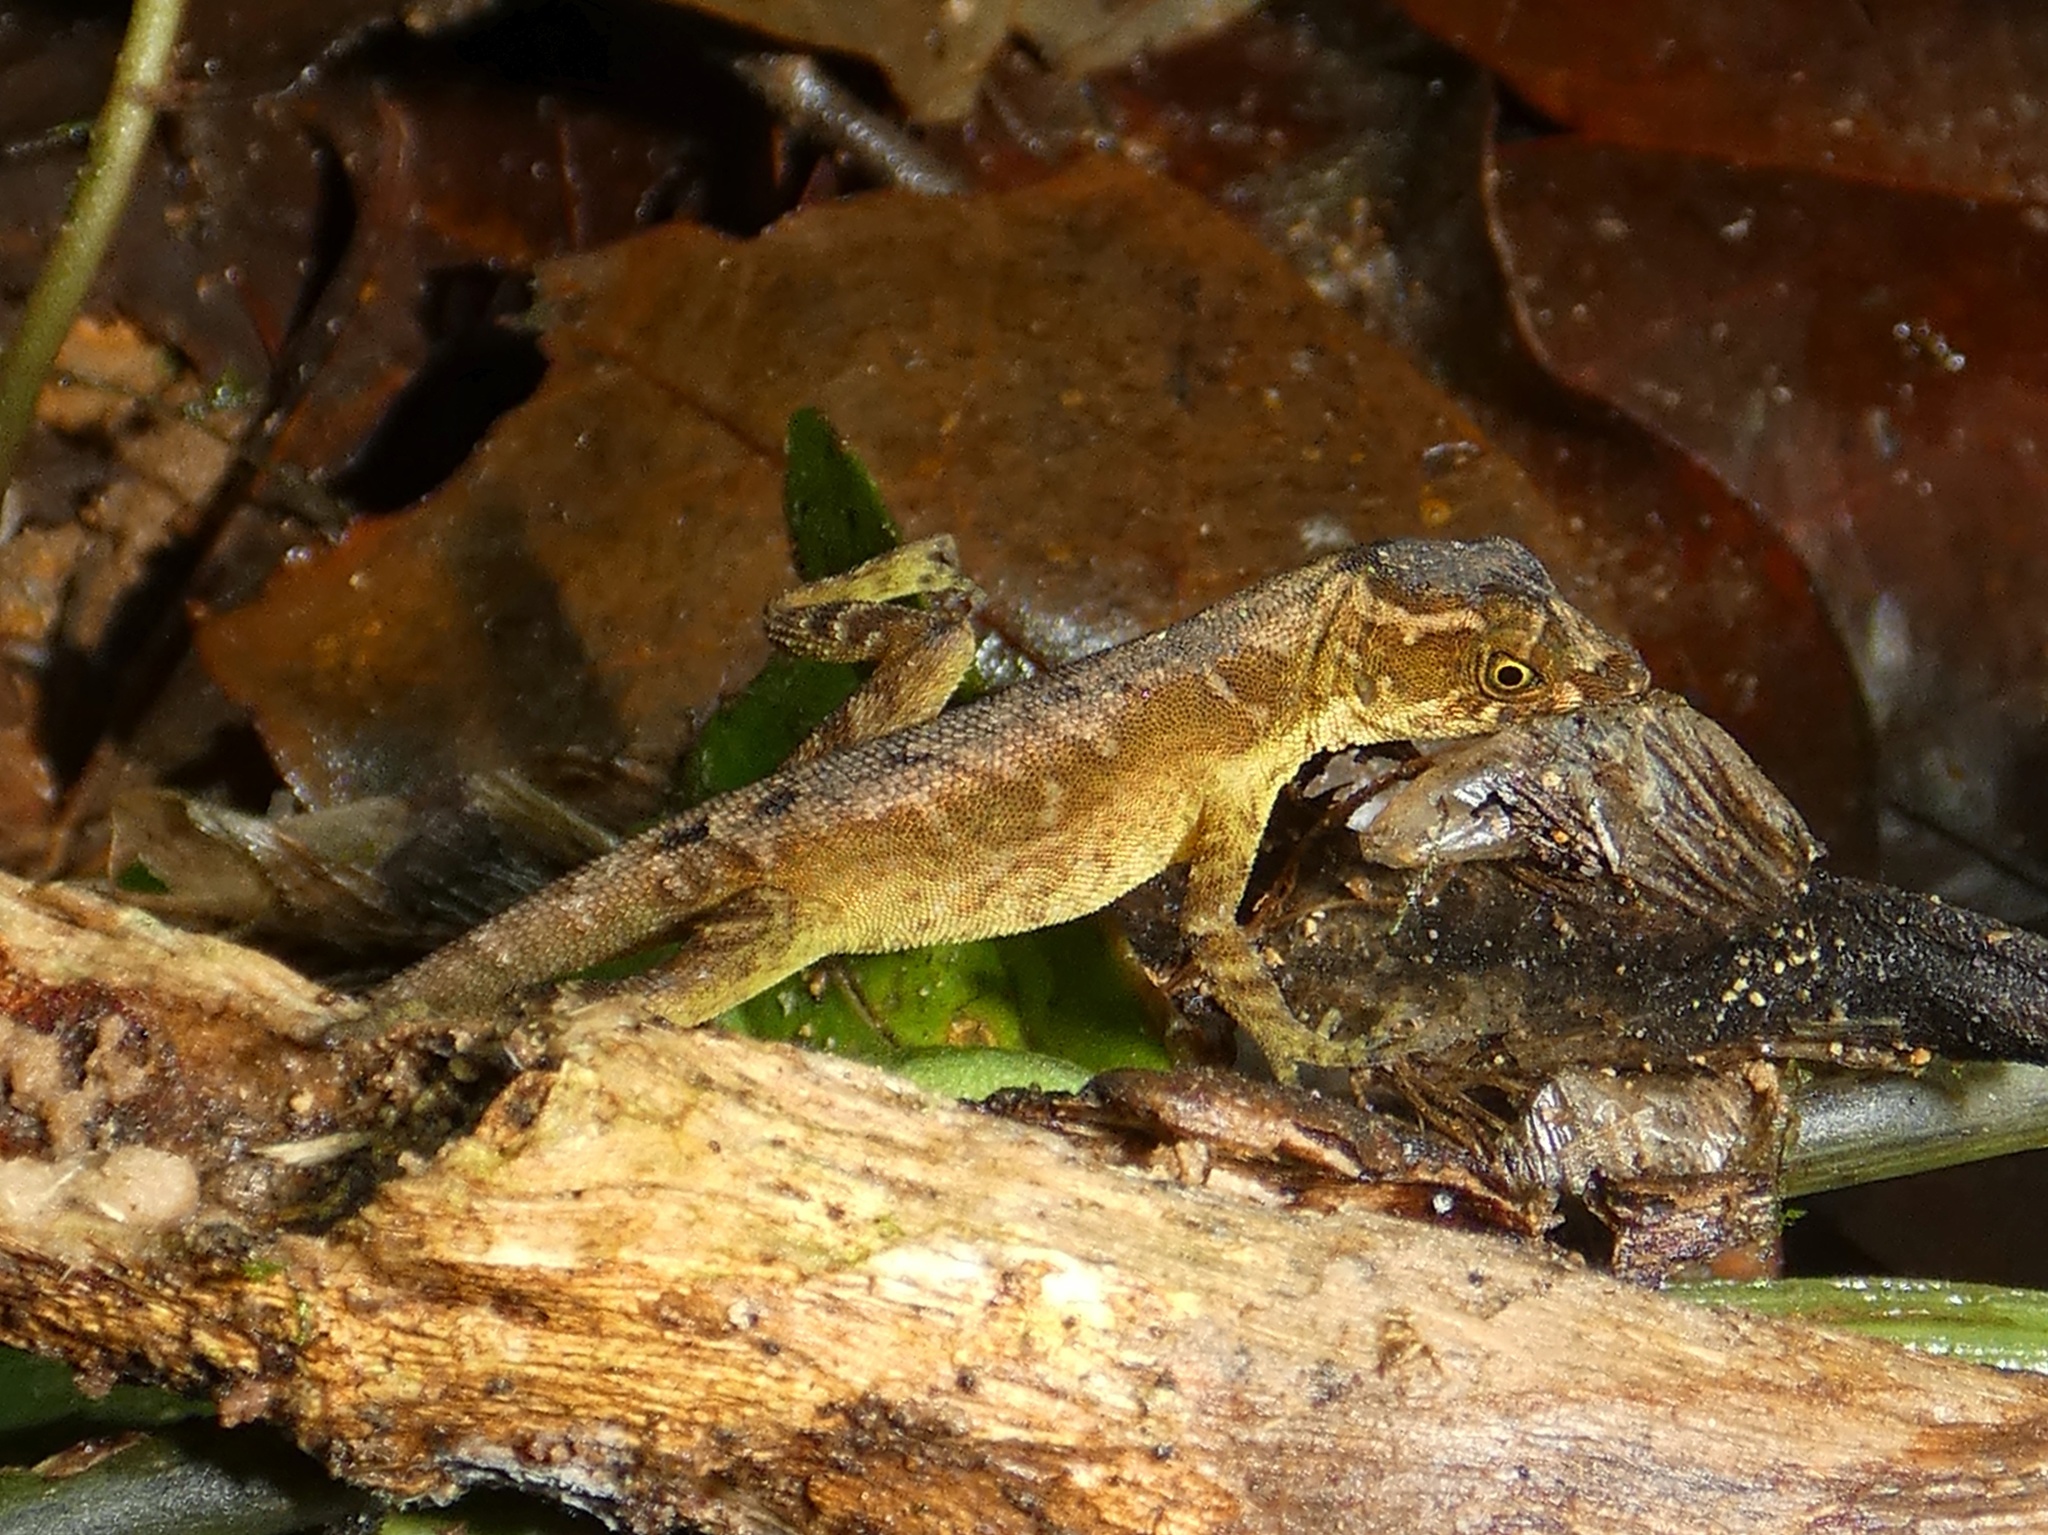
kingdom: Animalia
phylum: Chordata
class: Squamata
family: Dactyloidae
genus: Anolis
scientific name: Anolis humilis
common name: Humble anole
